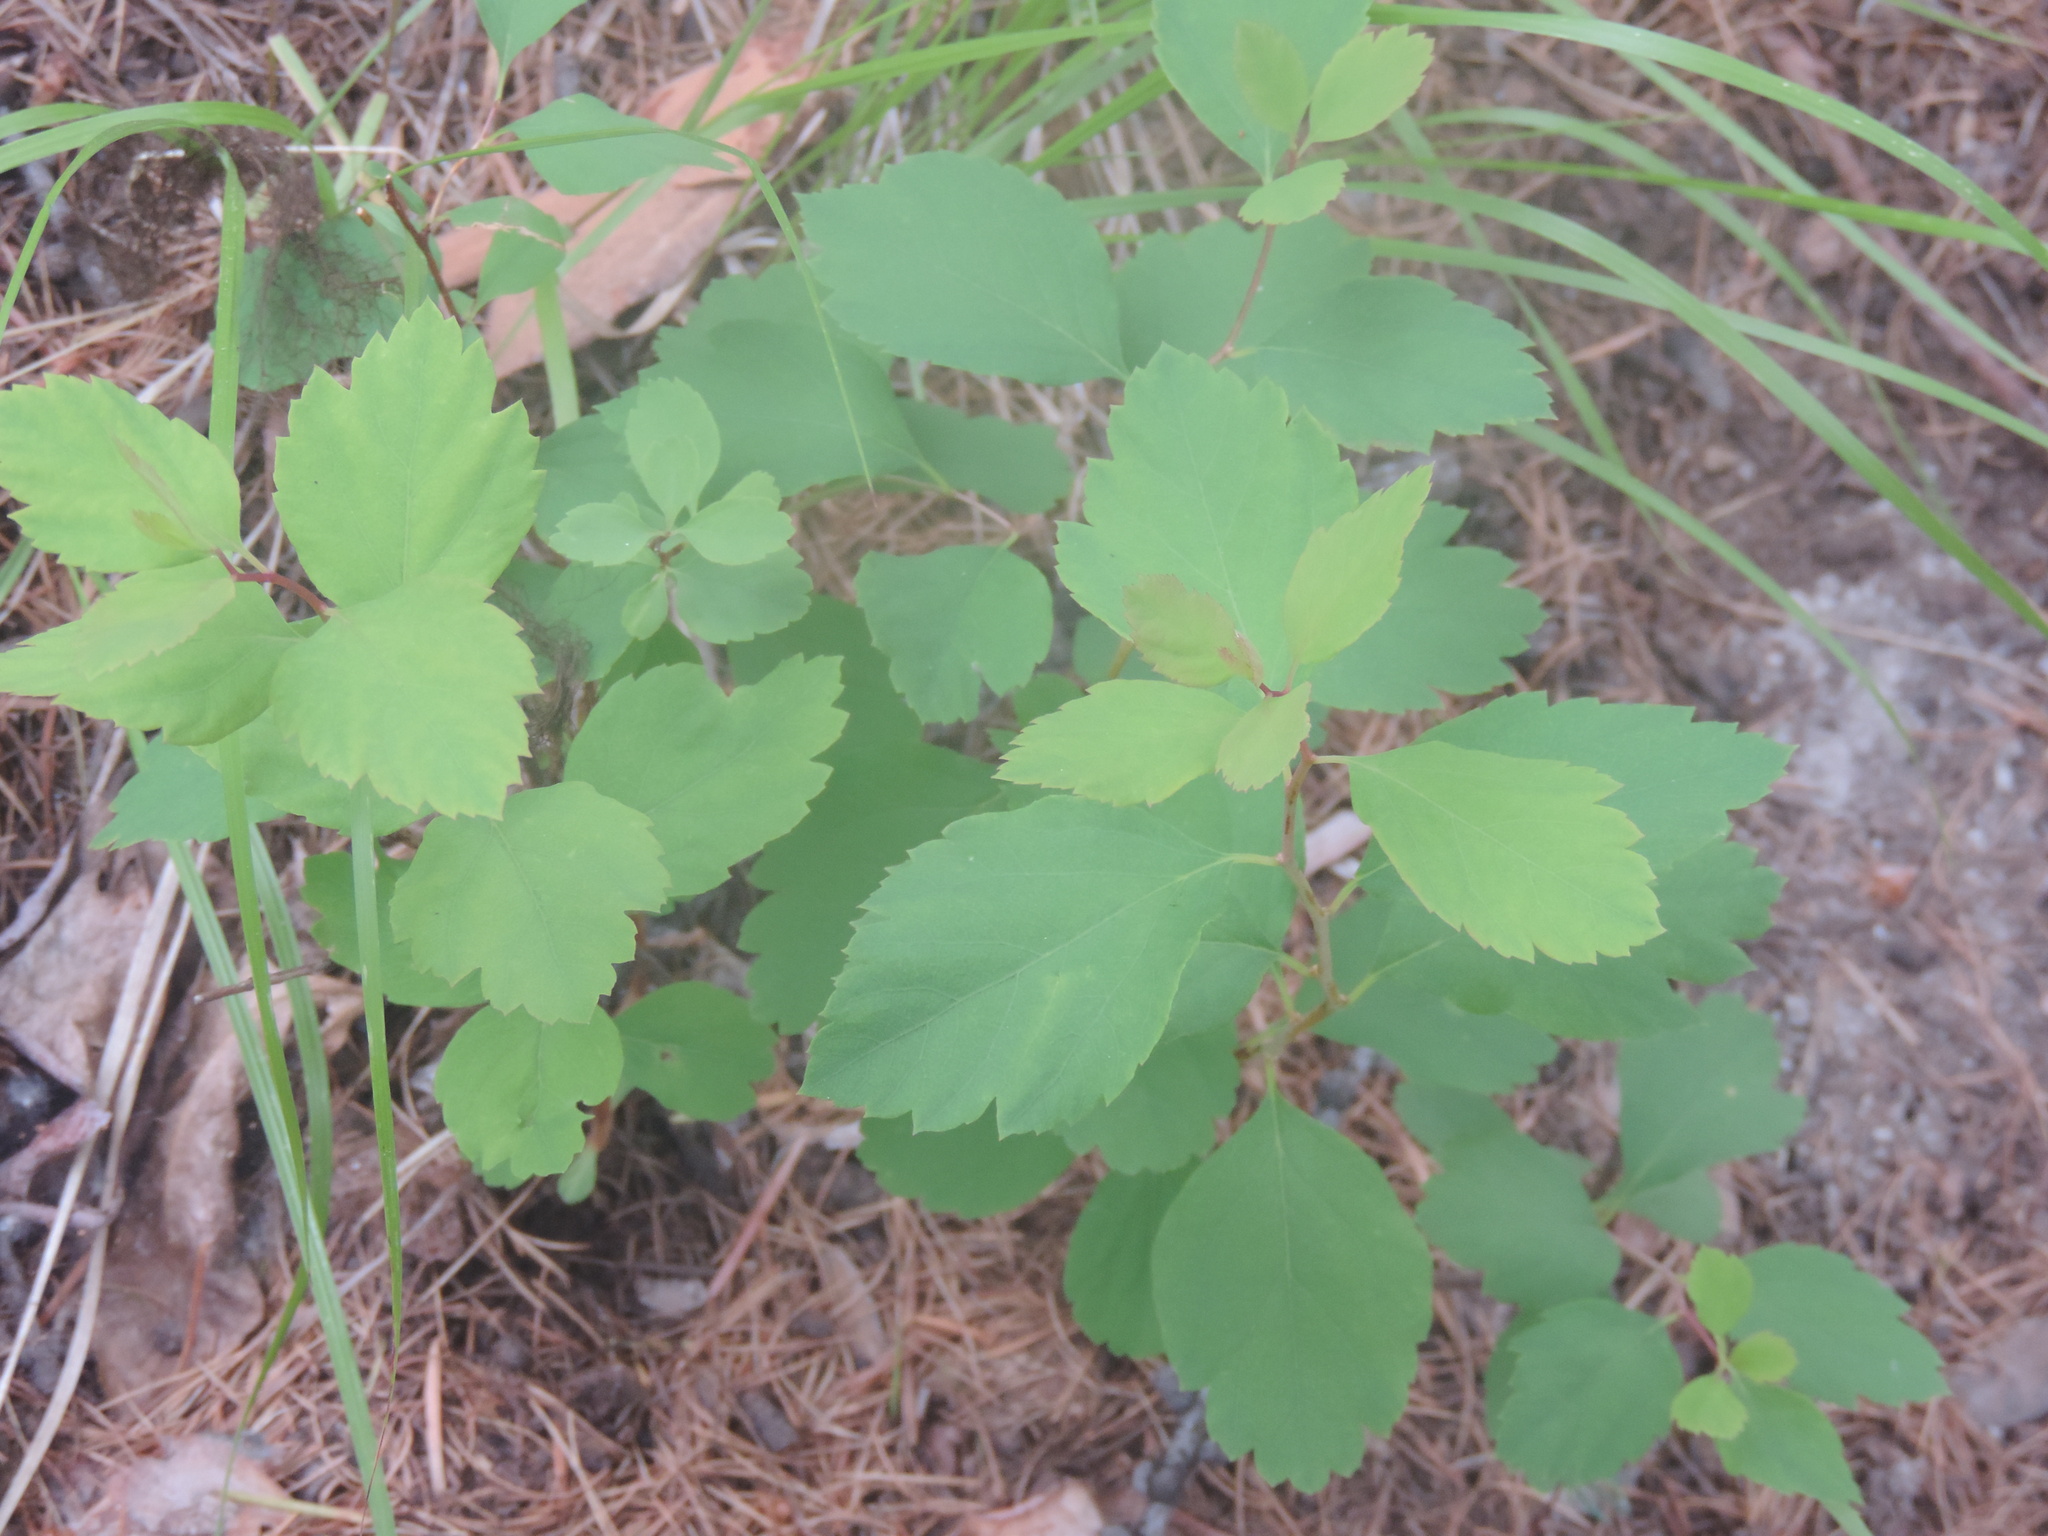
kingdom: Plantae
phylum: Tracheophyta
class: Magnoliopsida
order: Rosales
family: Rosaceae
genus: Spiraea
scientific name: Spiraea lucida
